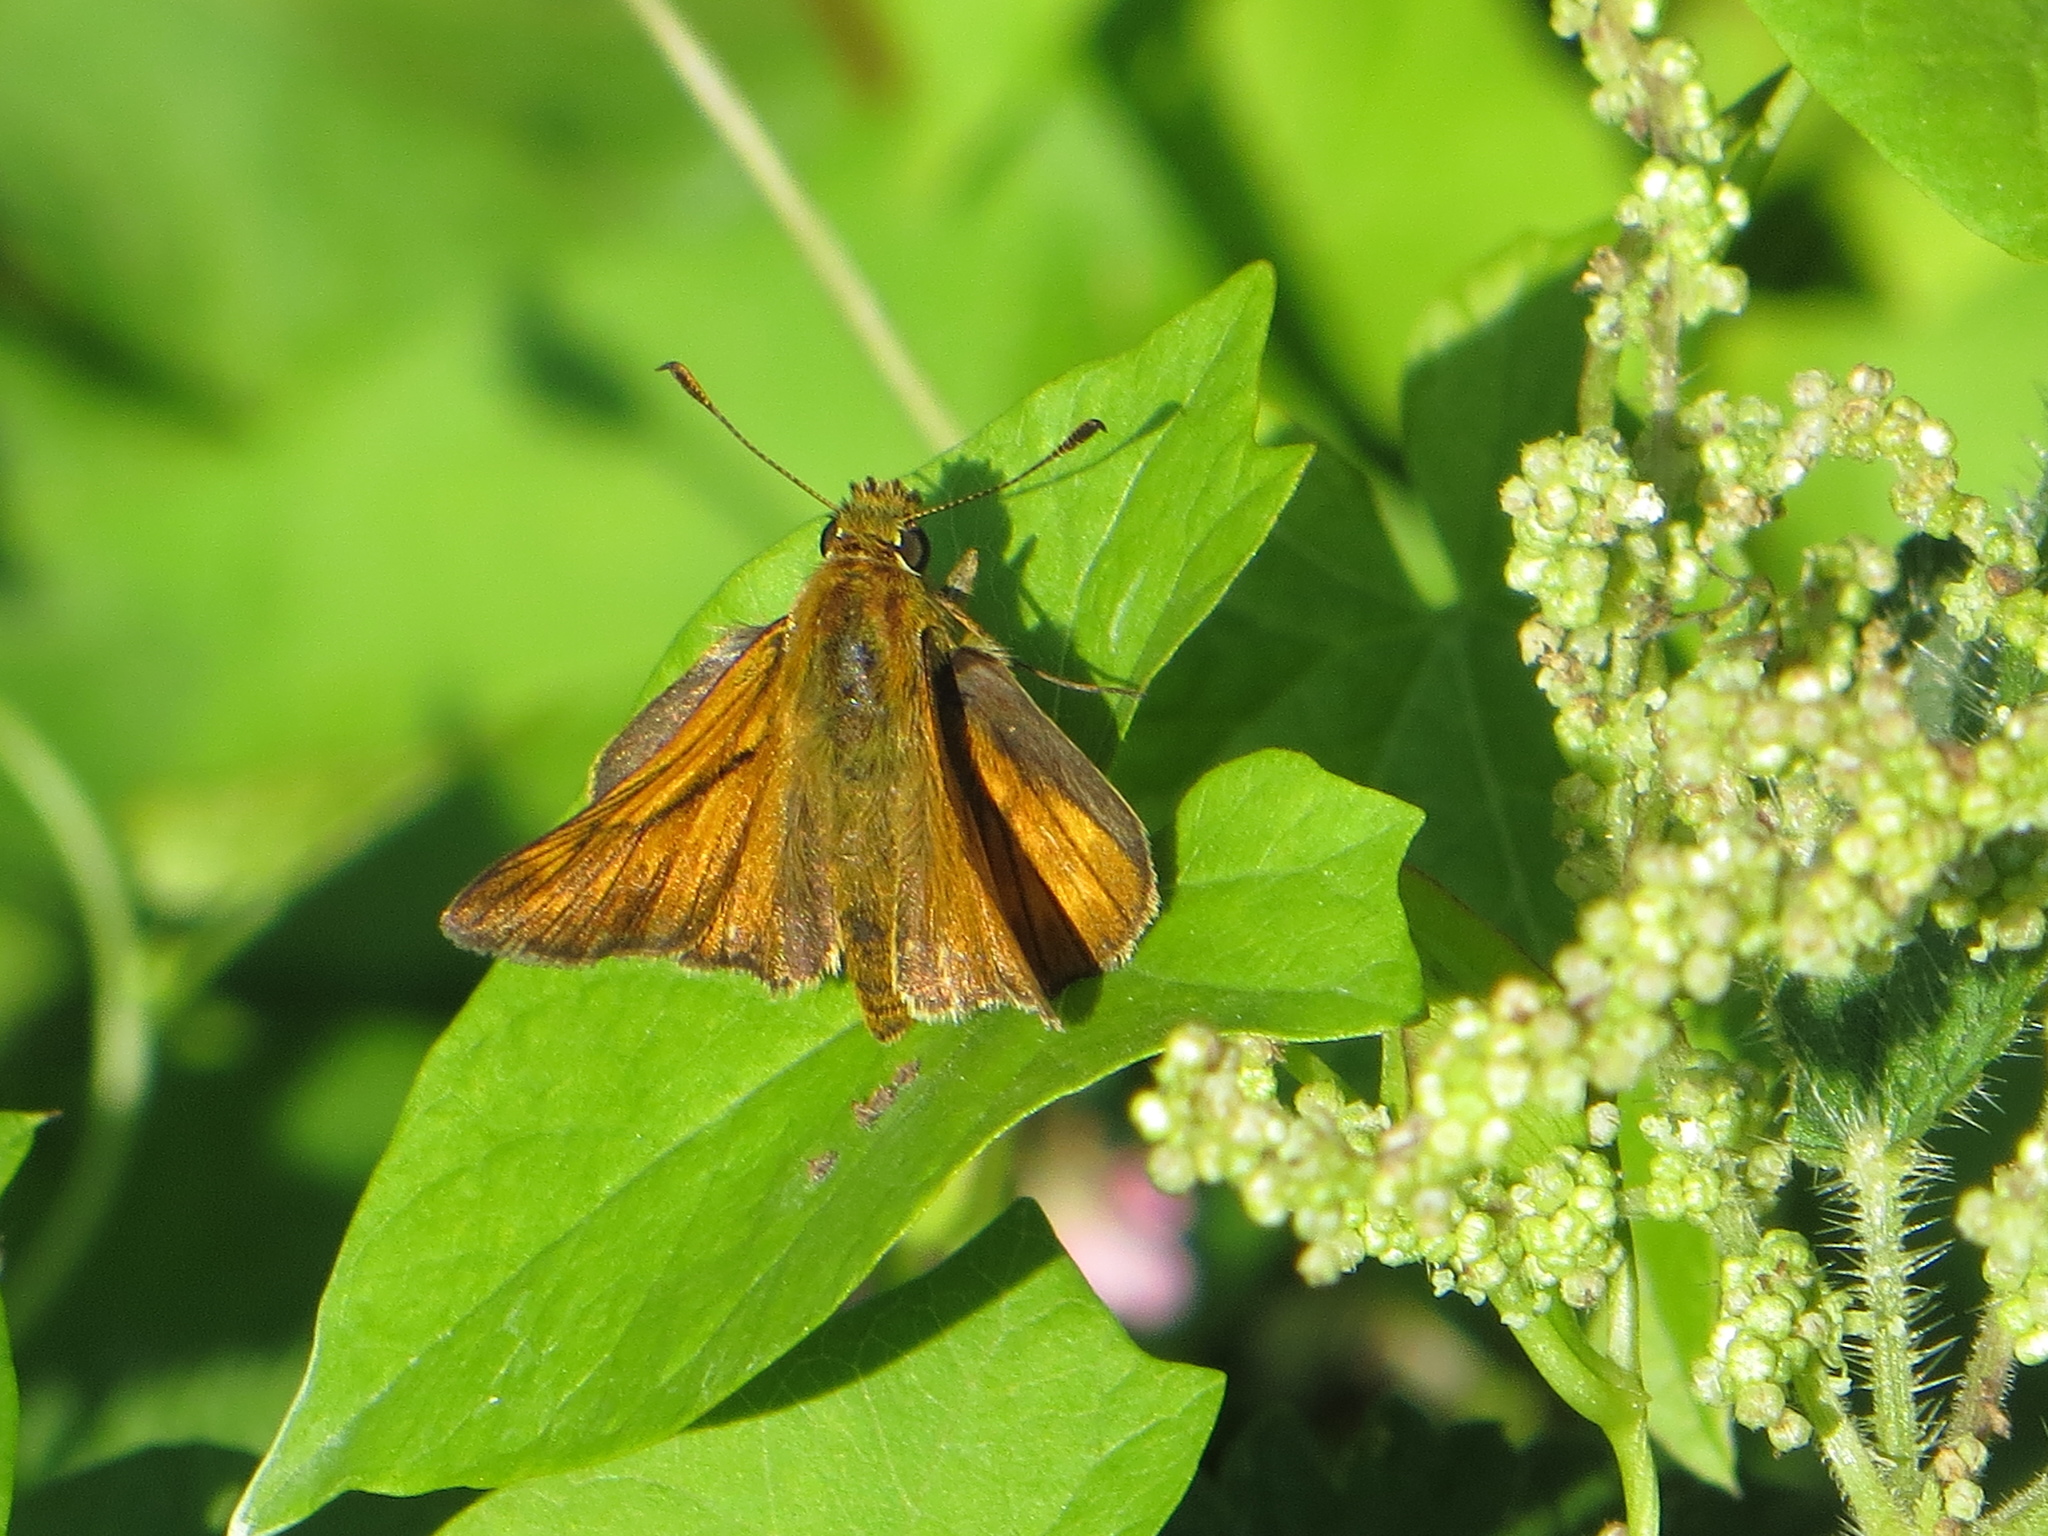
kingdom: Animalia
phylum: Arthropoda
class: Insecta
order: Lepidoptera
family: Hesperiidae
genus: Ochlodes
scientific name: Ochlodes venata
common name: Large skipper
